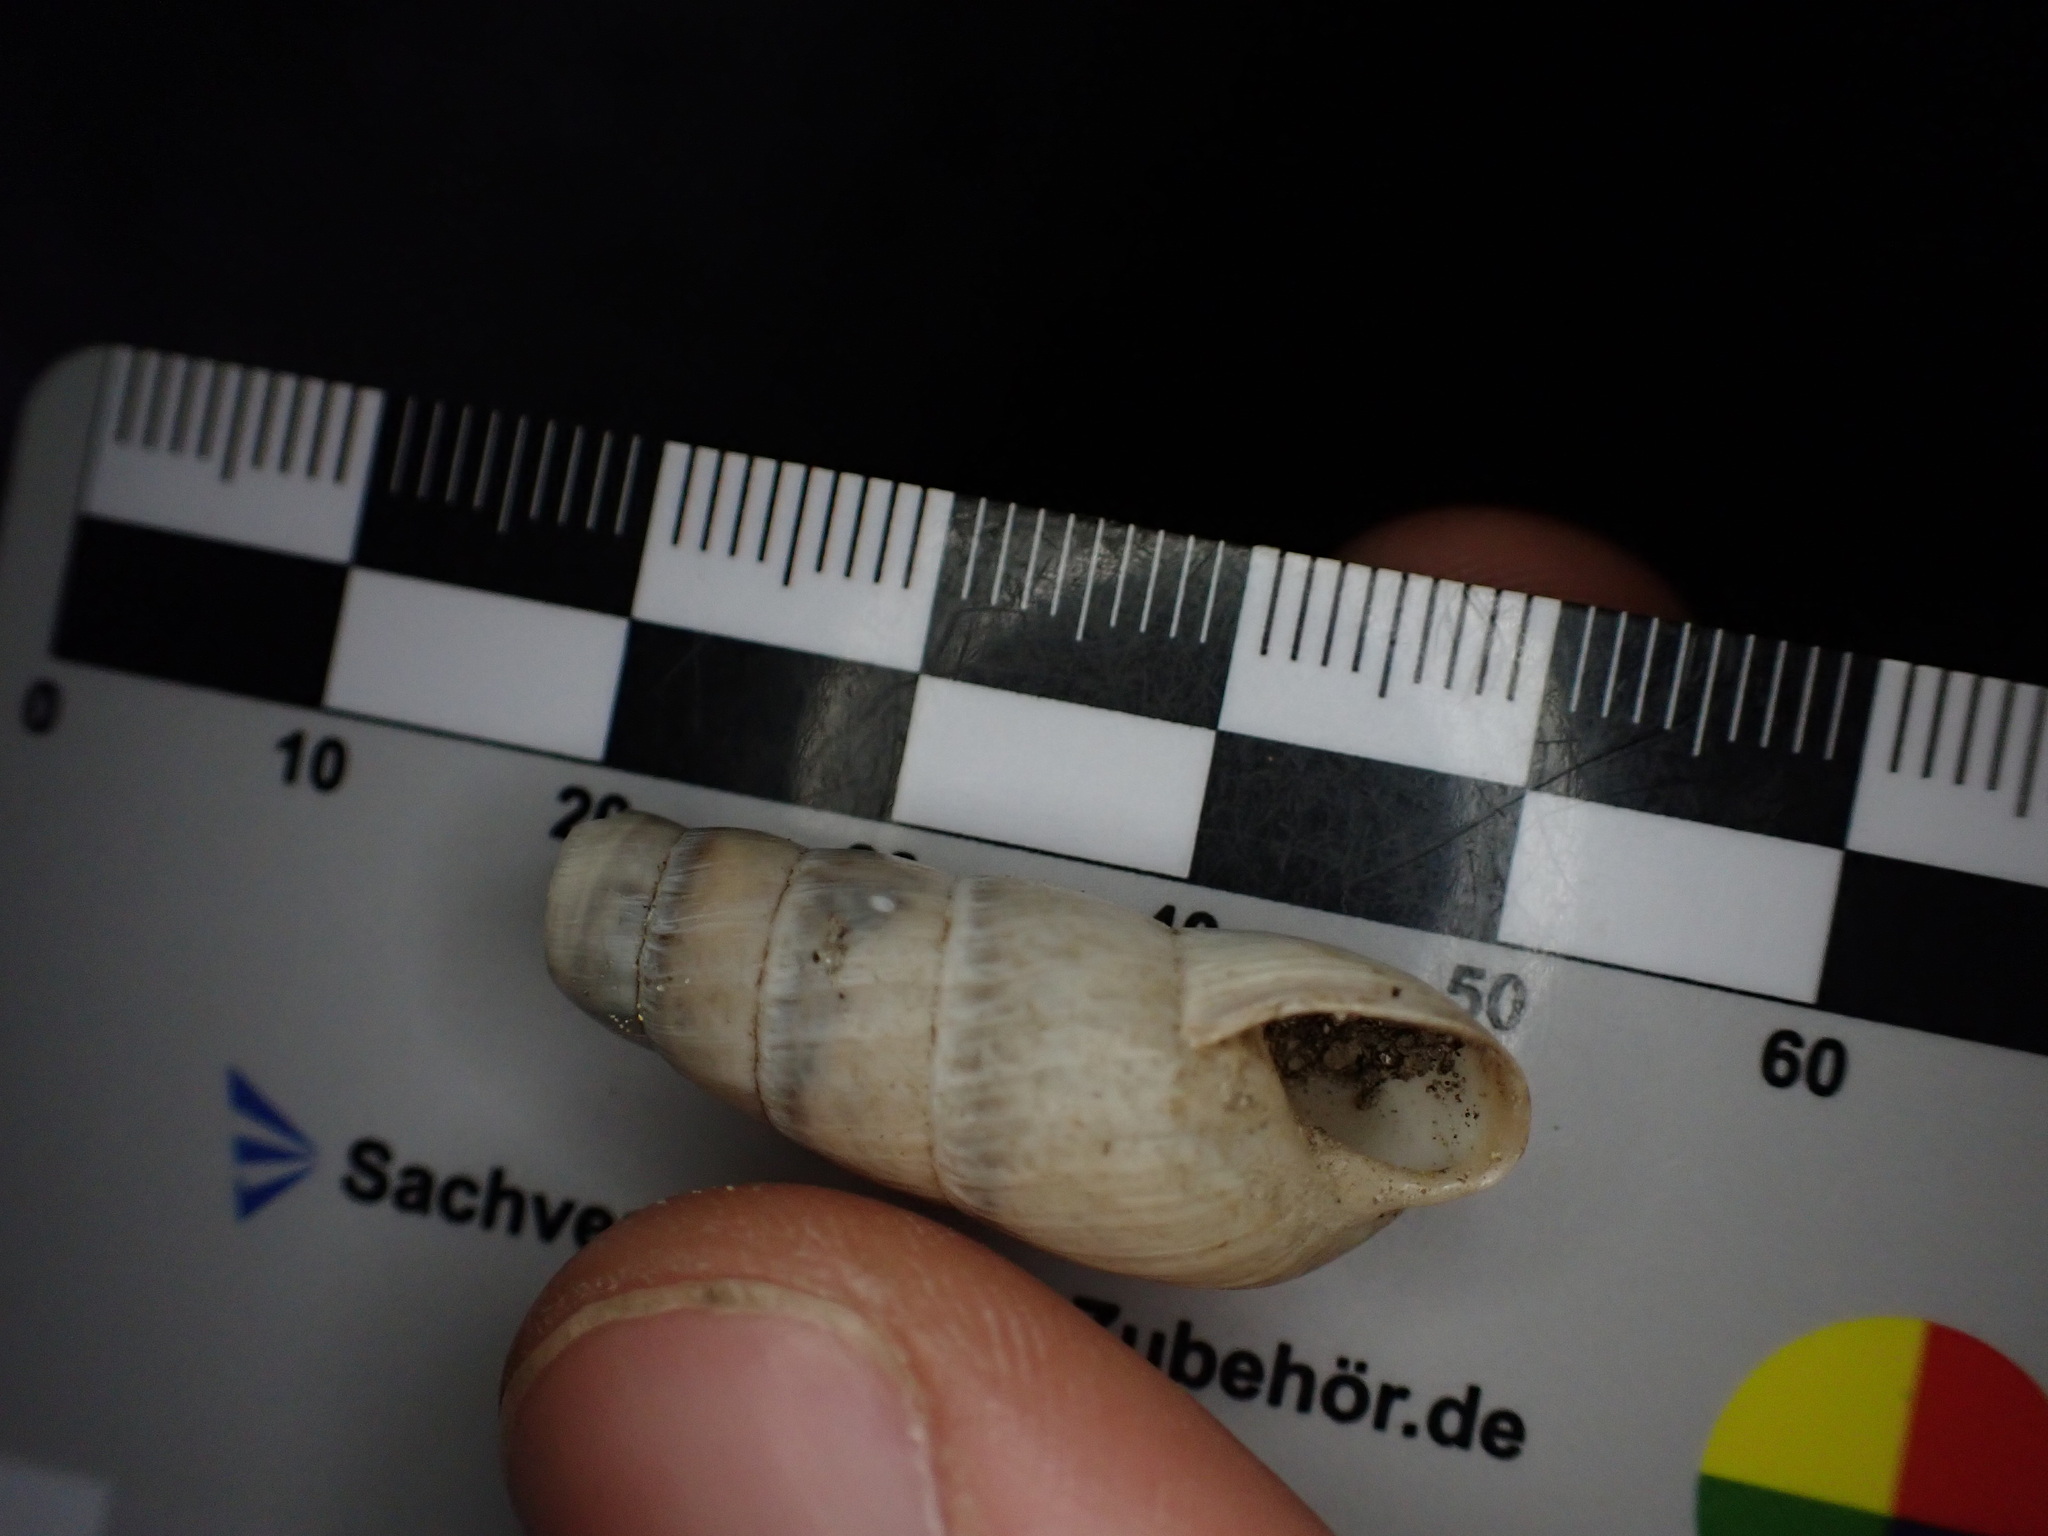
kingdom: Animalia
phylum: Mollusca
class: Gastropoda
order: Stylommatophora
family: Achatinidae
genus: Rumina
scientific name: Rumina decollata
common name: Decollate snail
